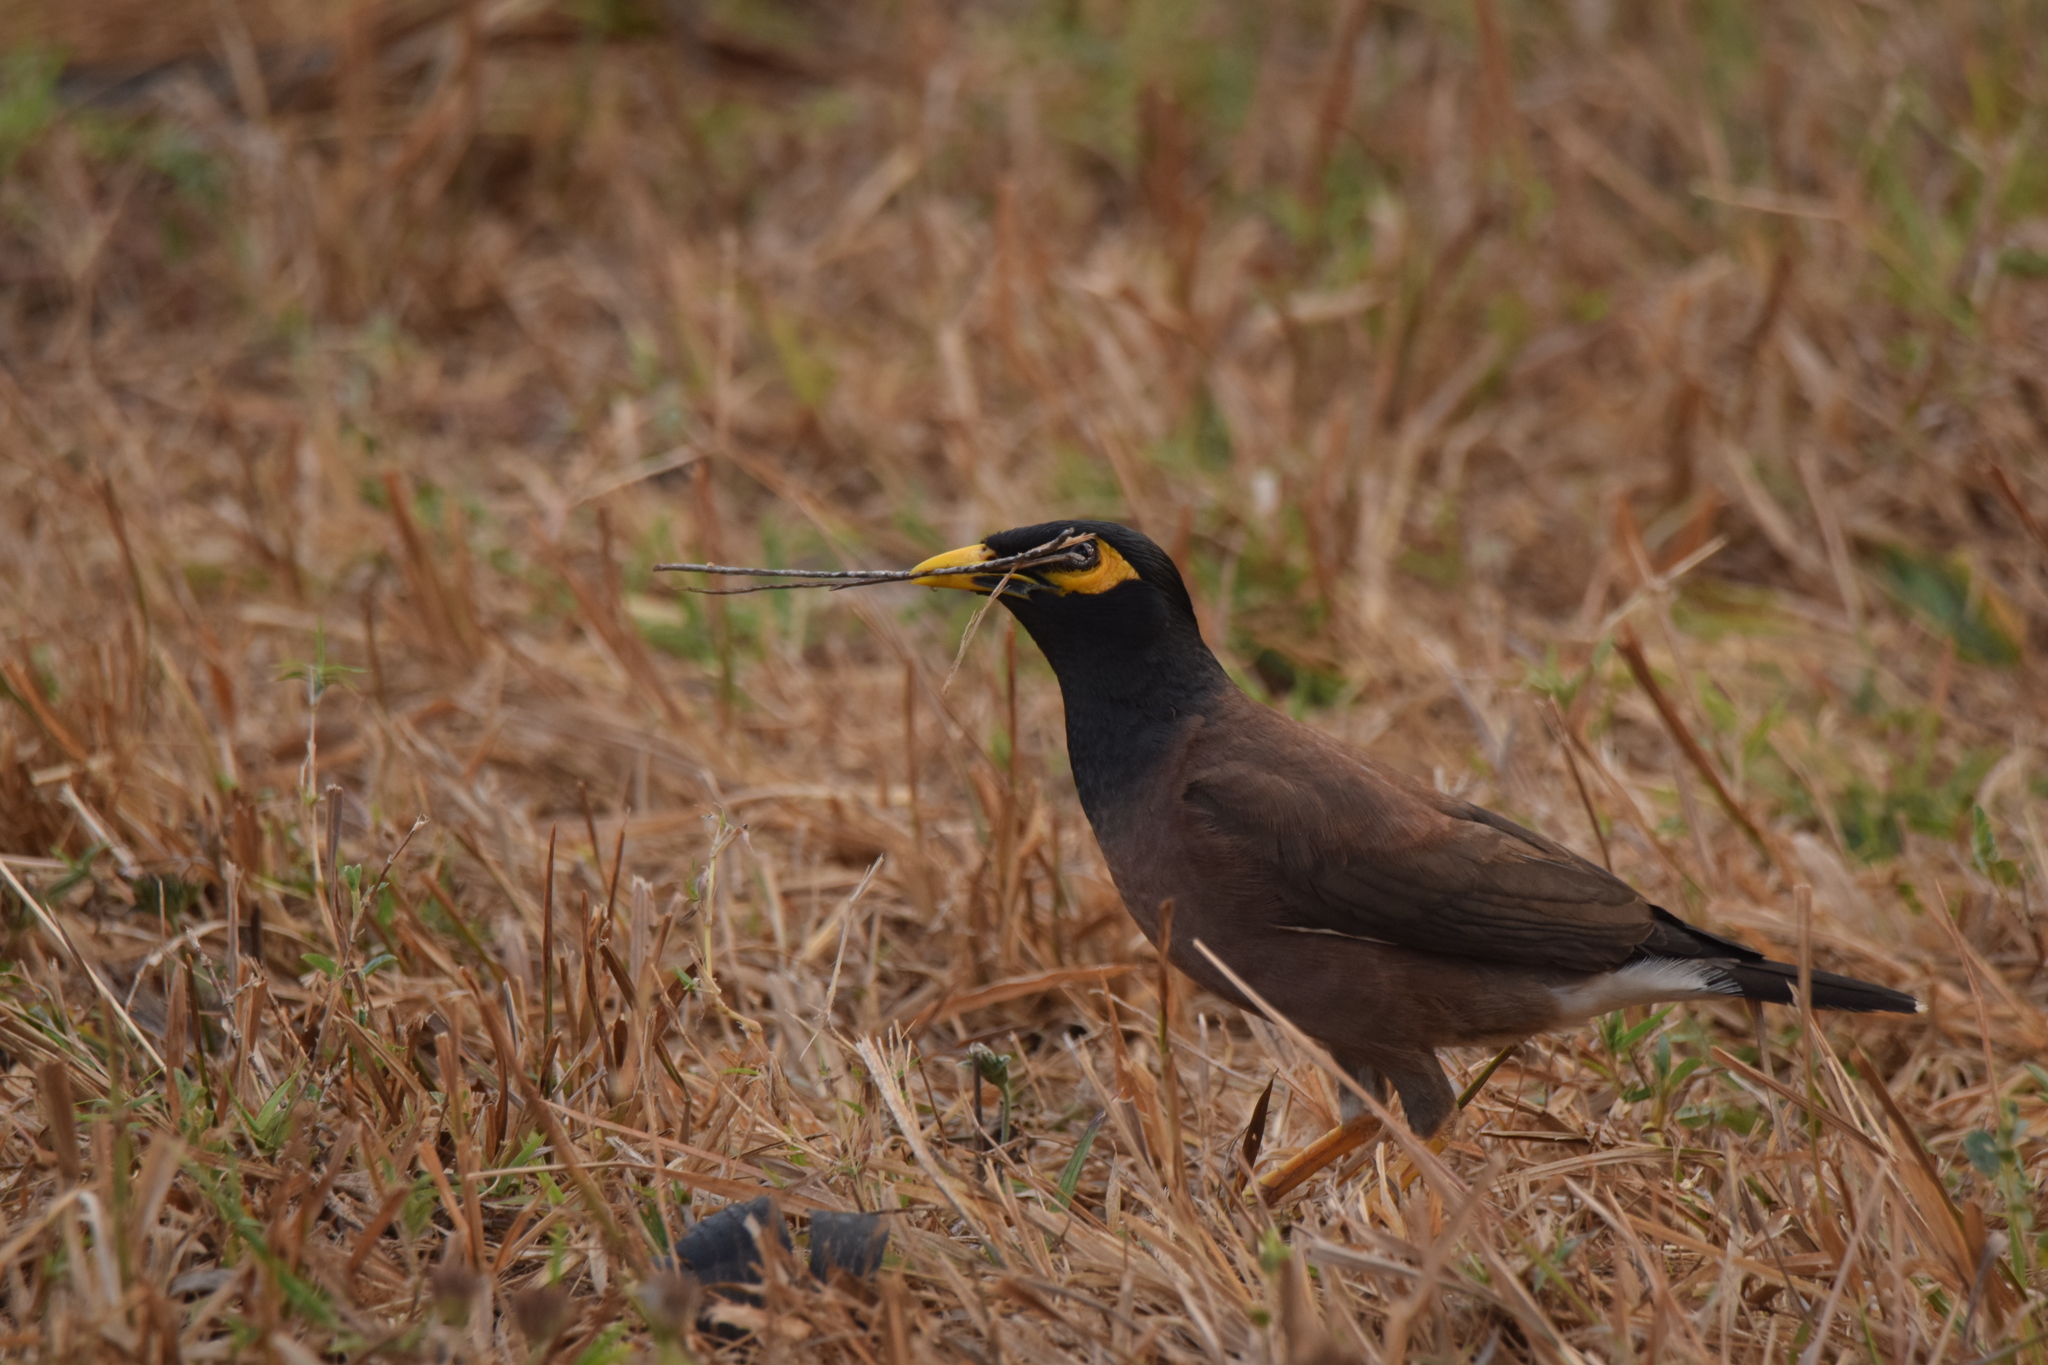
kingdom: Animalia
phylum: Chordata
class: Aves
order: Passeriformes
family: Sturnidae
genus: Acridotheres
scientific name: Acridotheres tristis
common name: Common myna
